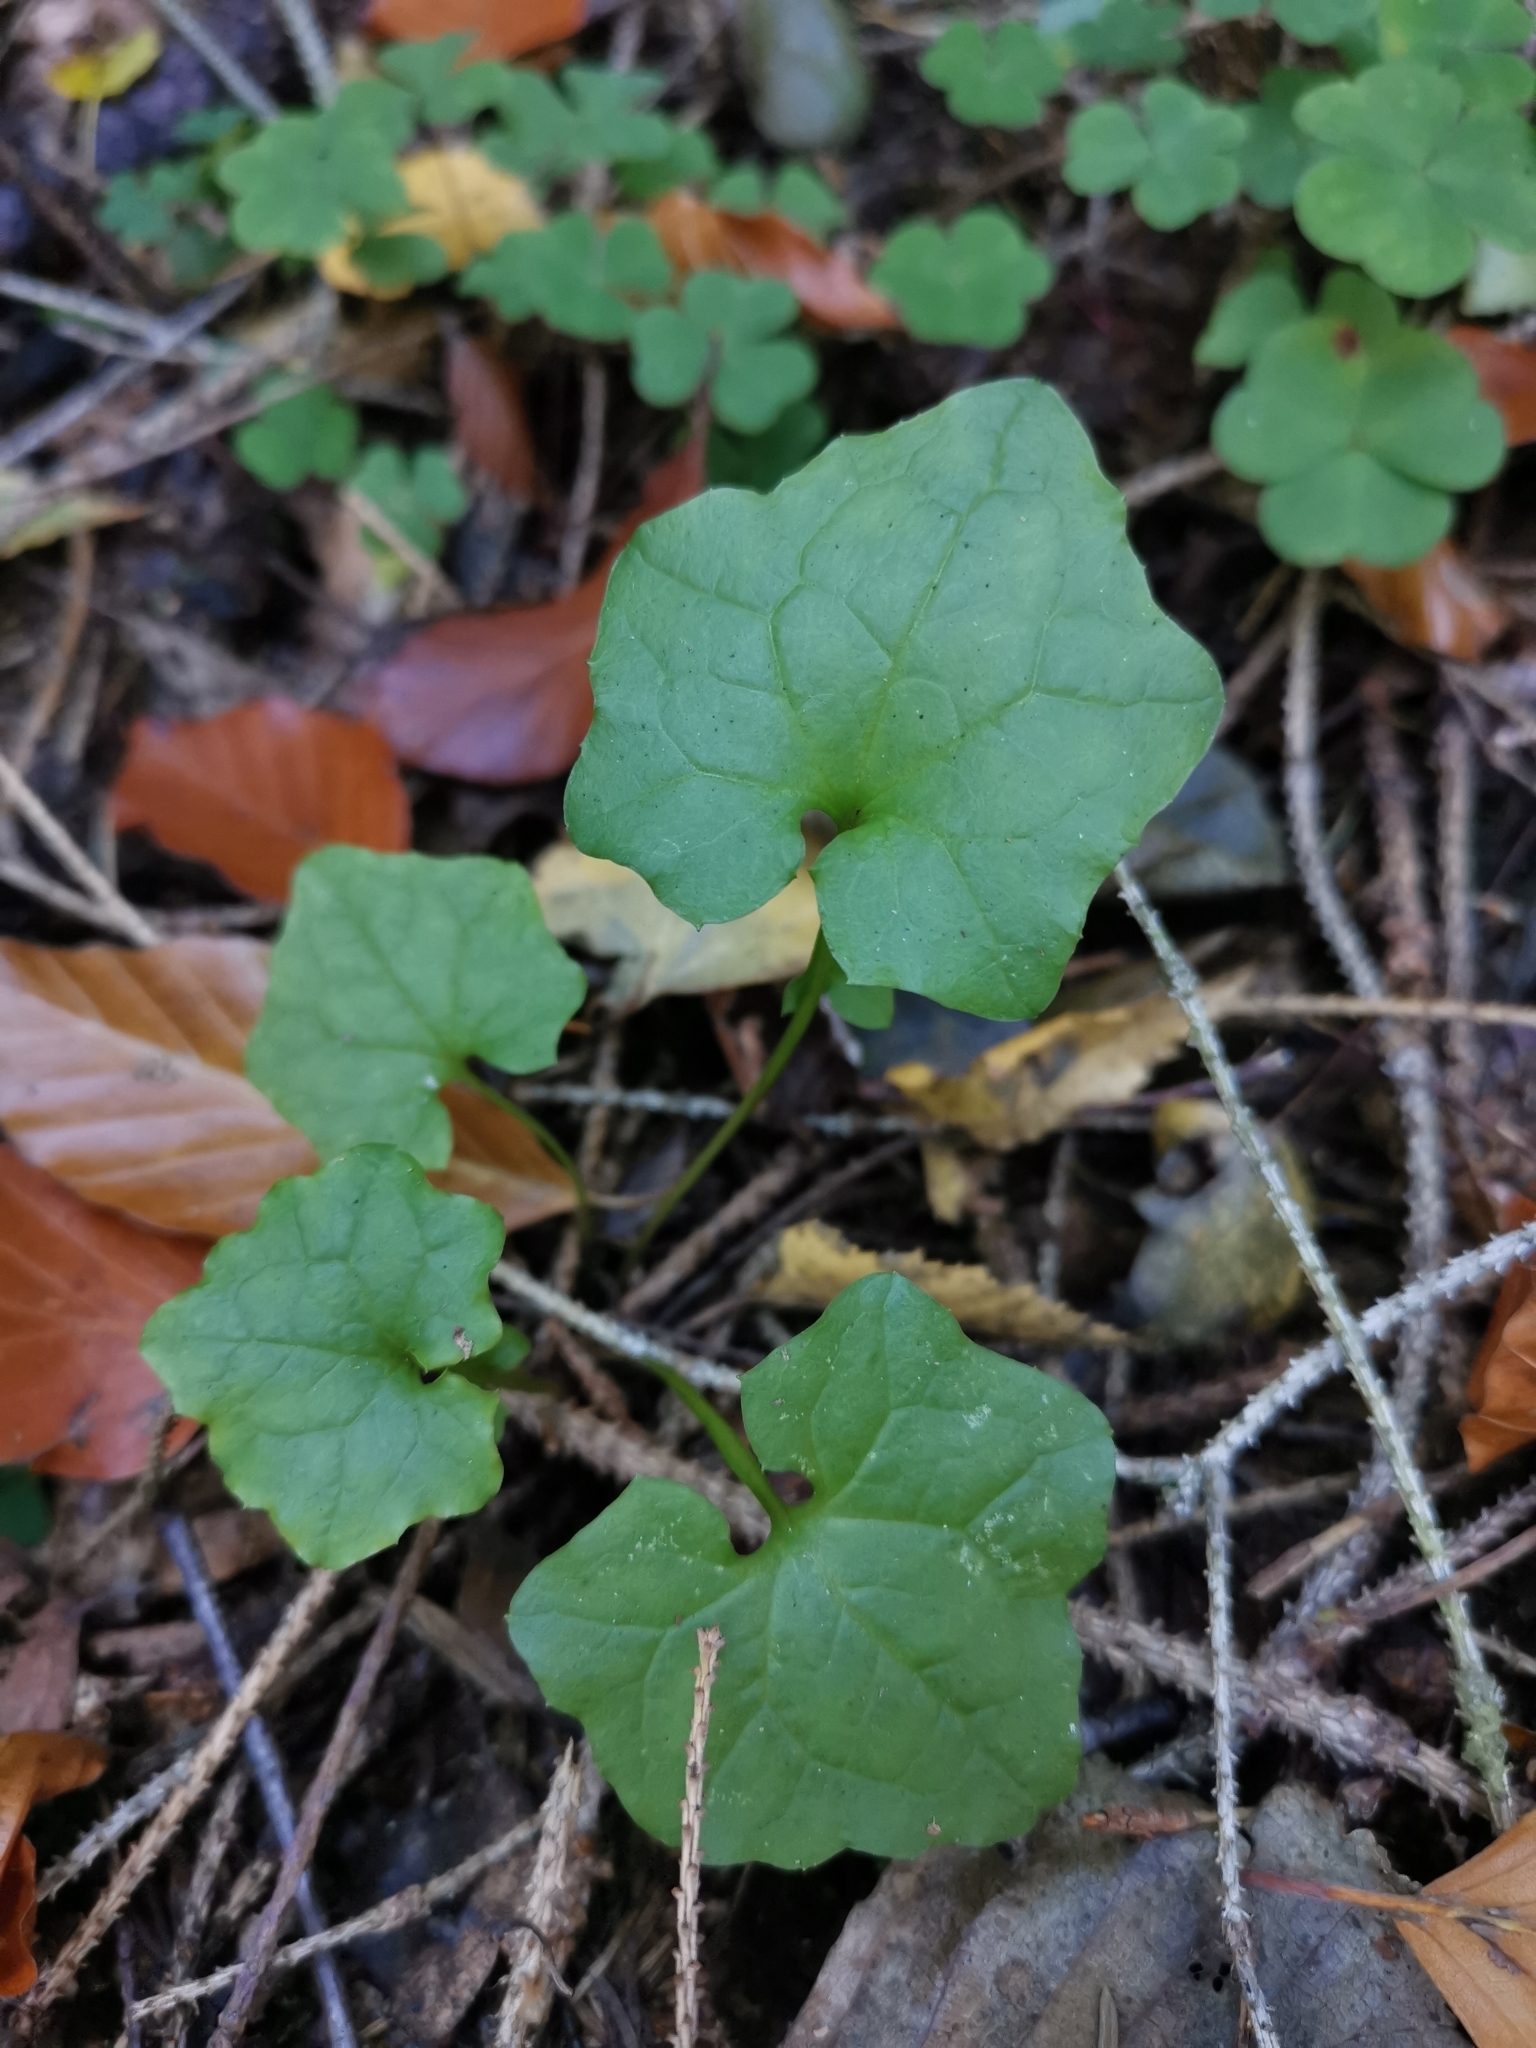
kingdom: Plantae
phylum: Tracheophyta
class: Magnoliopsida
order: Asterales
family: Asteraceae
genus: Mycelis
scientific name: Mycelis muralis
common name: Wall lettuce
